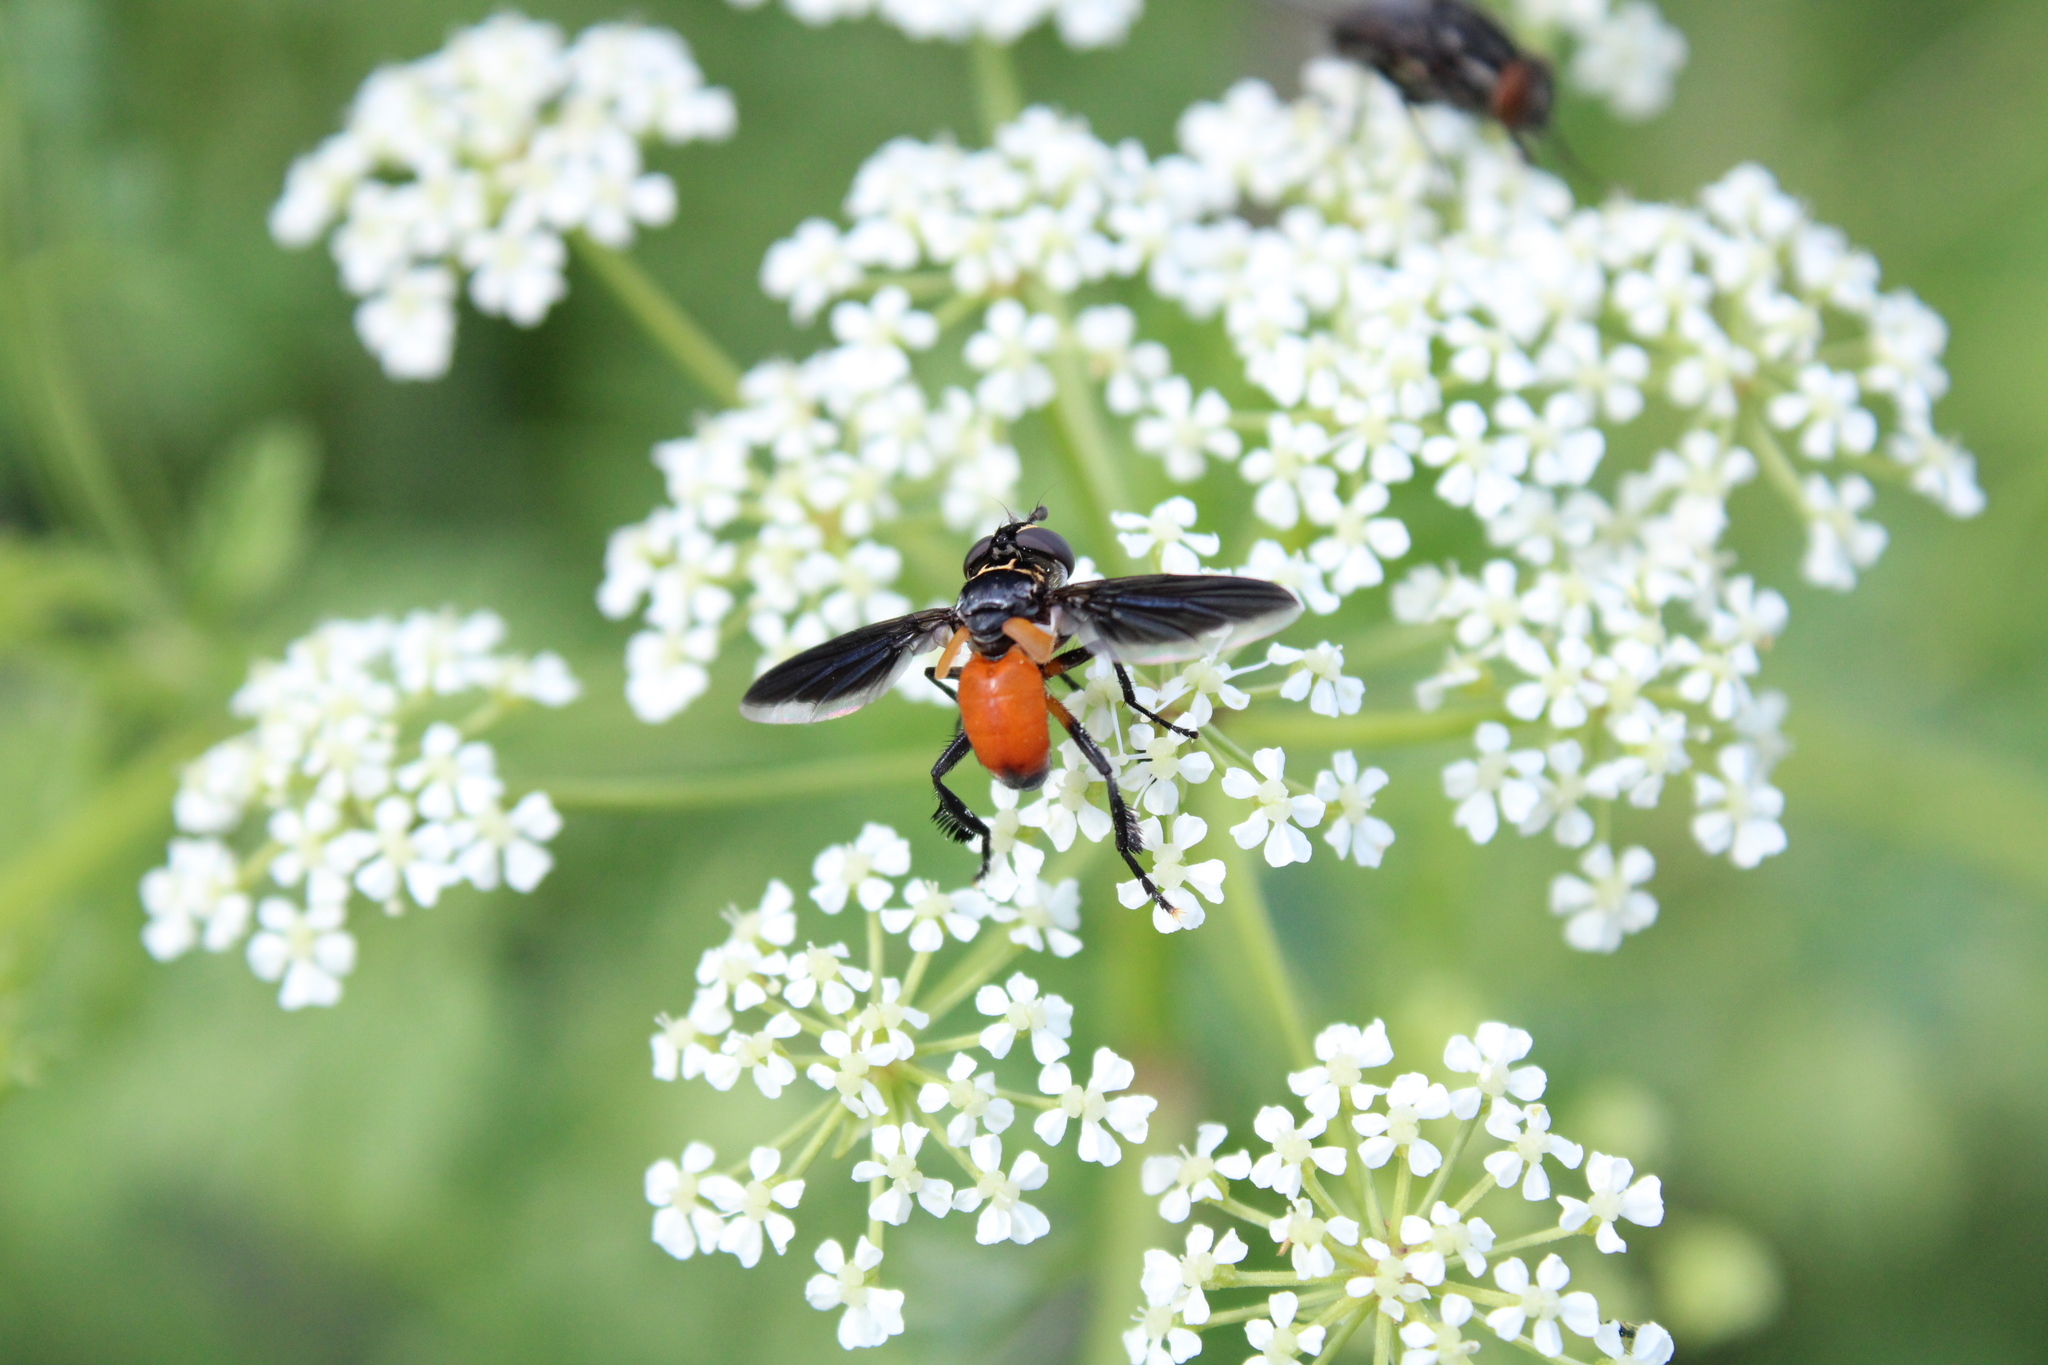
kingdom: Animalia
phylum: Arthropoda
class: Insecta
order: Diptera
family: Tachinidae
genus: Trichopoda
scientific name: Trichopoda pennipes
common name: Tachinid fly
